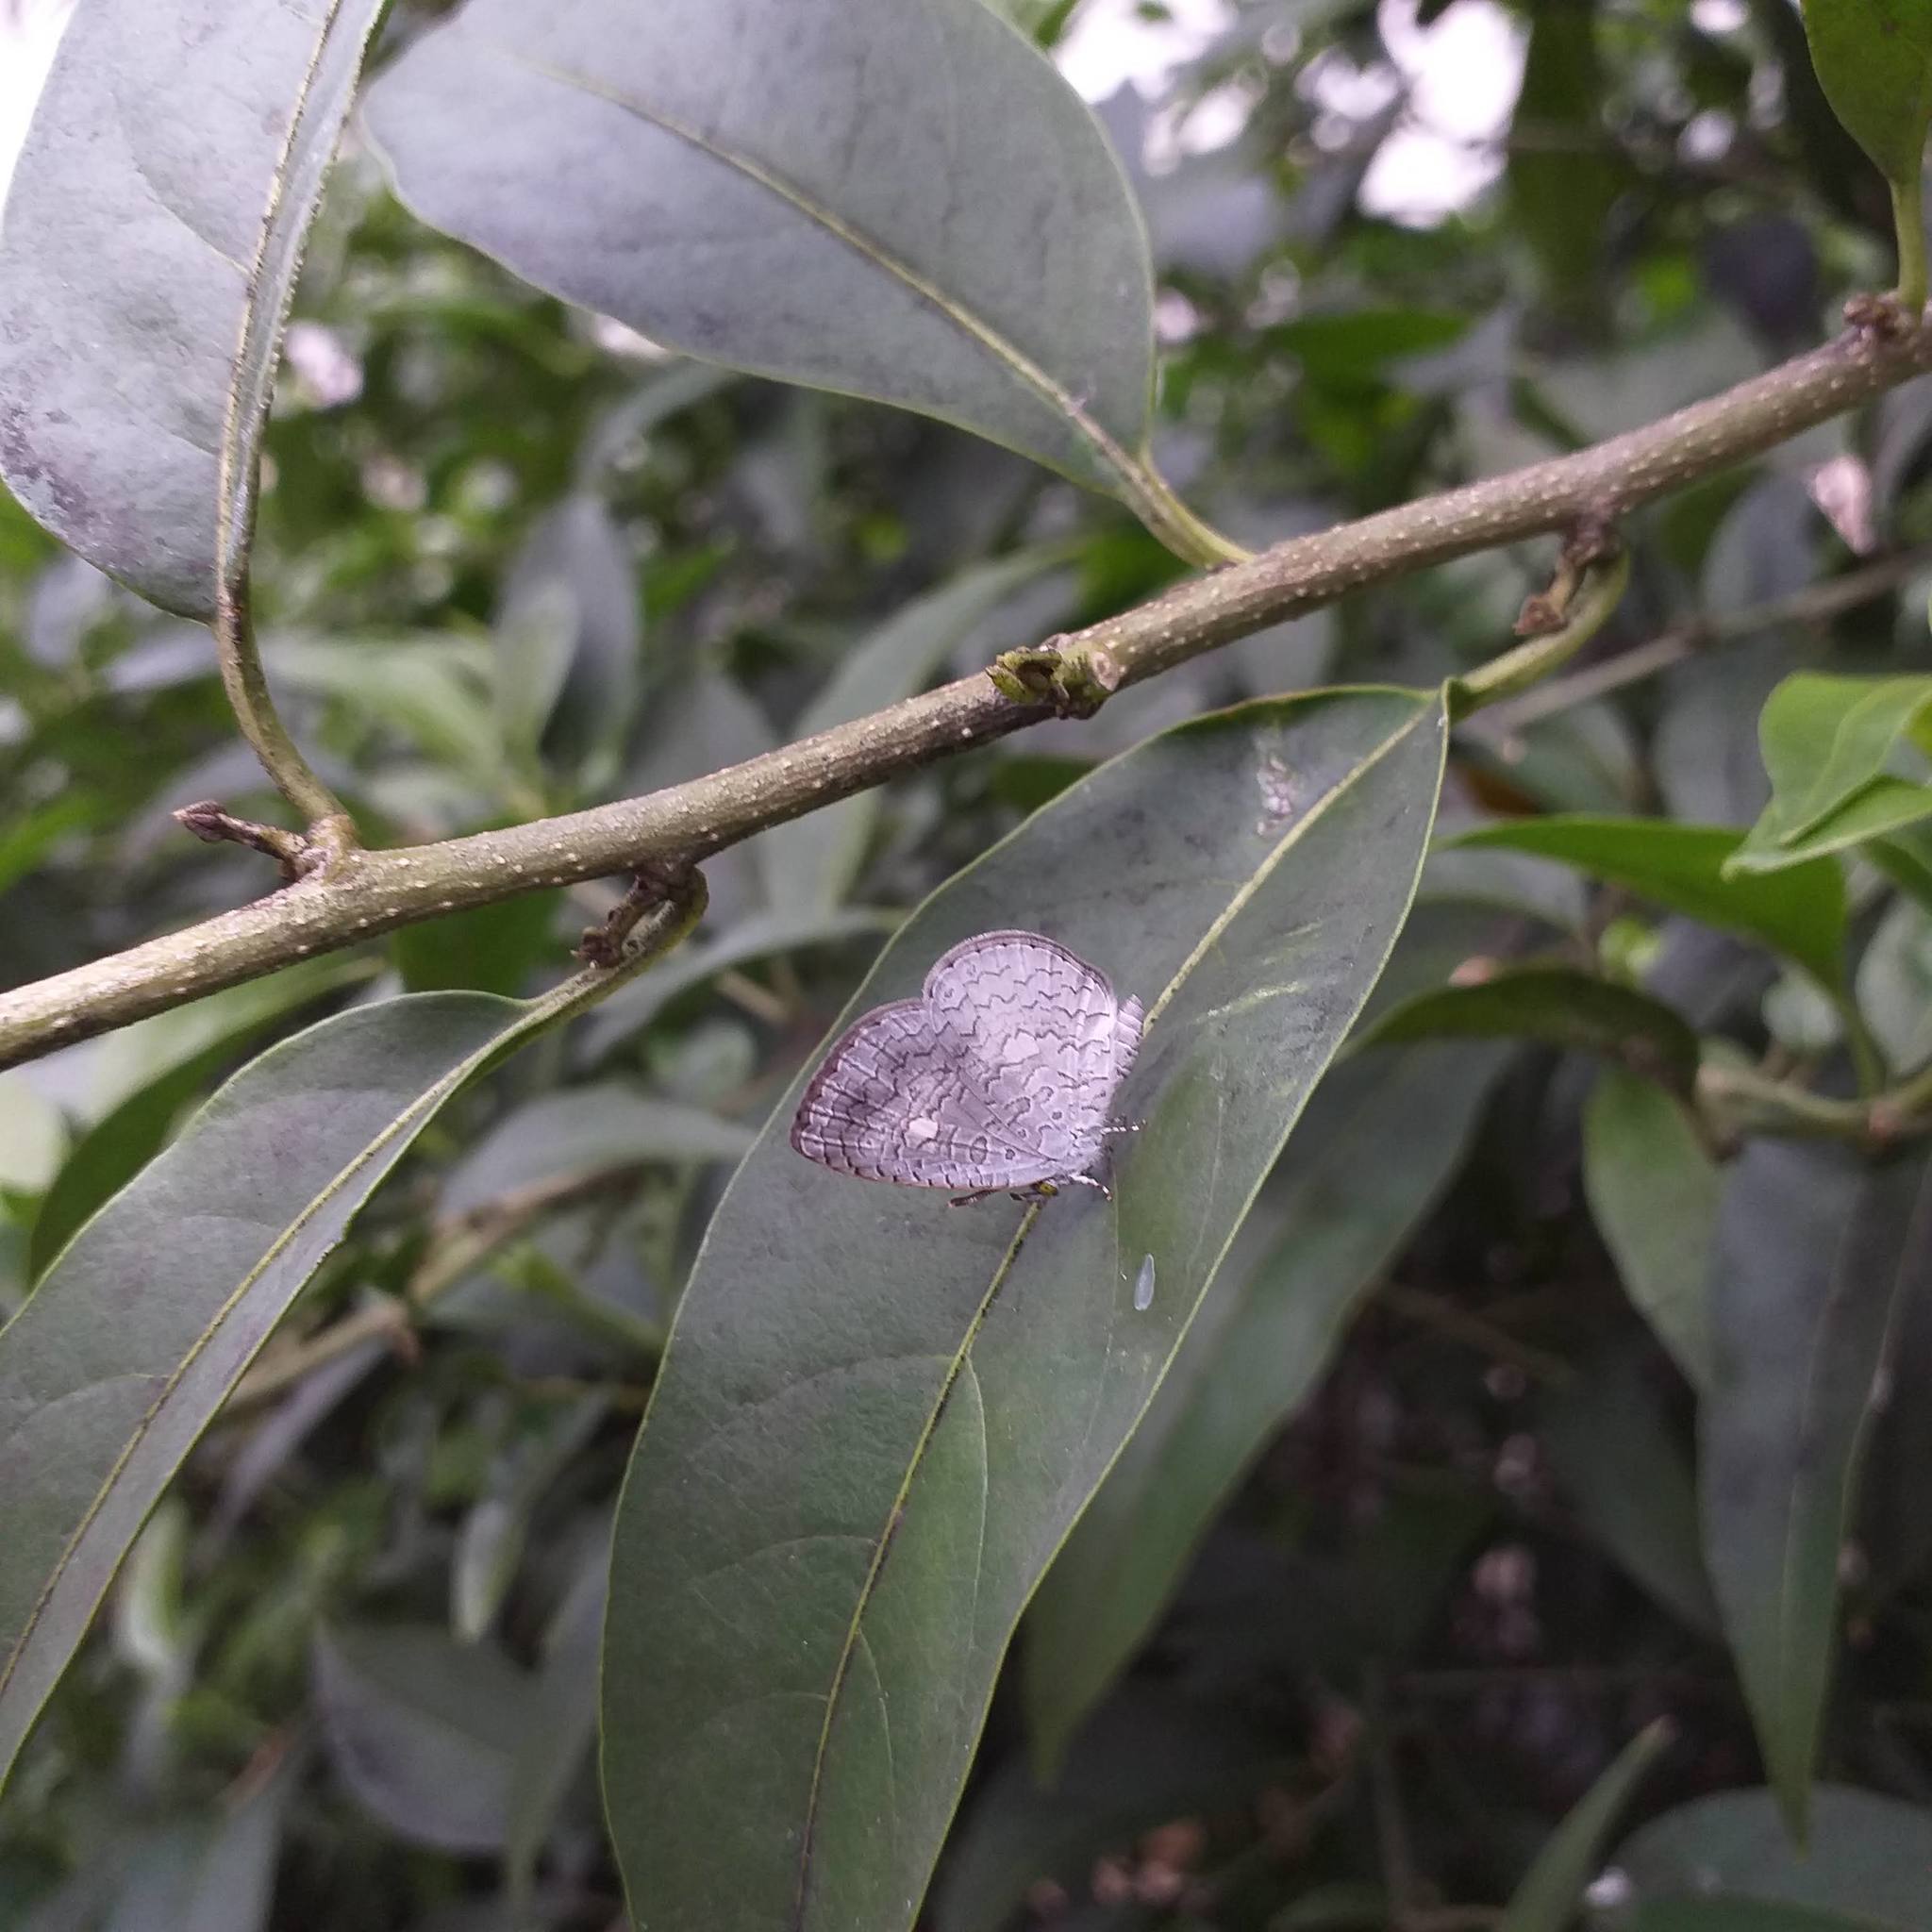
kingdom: Animalia
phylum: Arthropoda
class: Insecta
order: Lepidoptera
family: Lycaenidae
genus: Spalgis
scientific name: Spalgis epius
